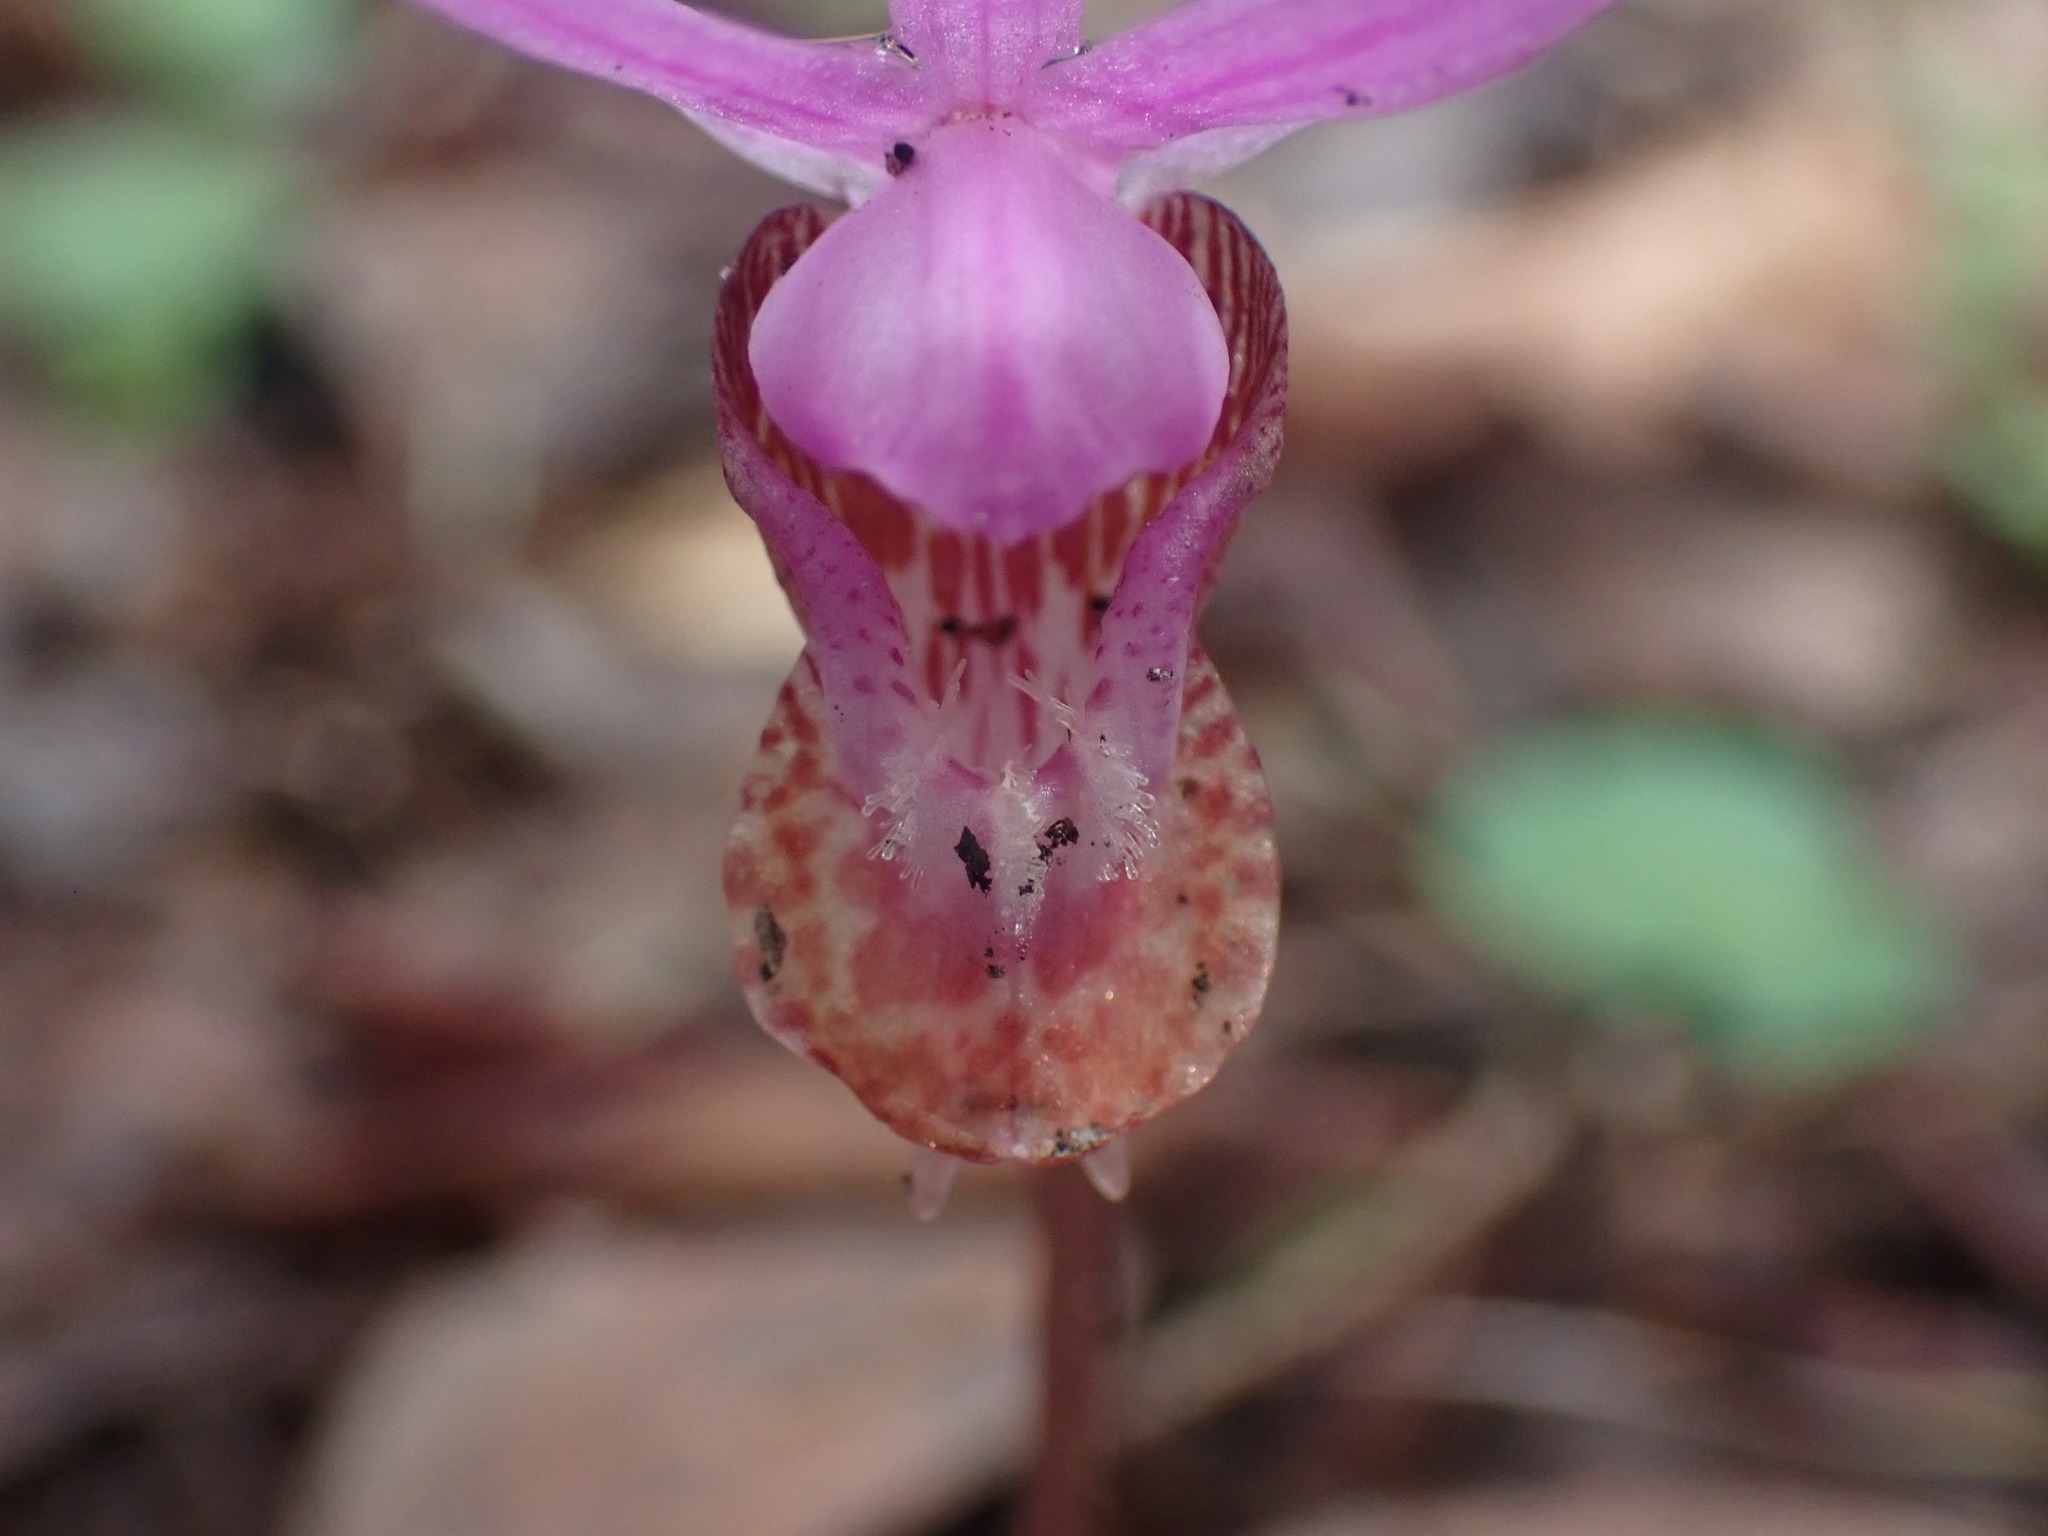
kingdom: Plantae
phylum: Tracheophyta
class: Liliopsida
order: Asparagales
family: Orchidaceae
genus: Calypso
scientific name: Calypso bulbosa
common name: Calypso
